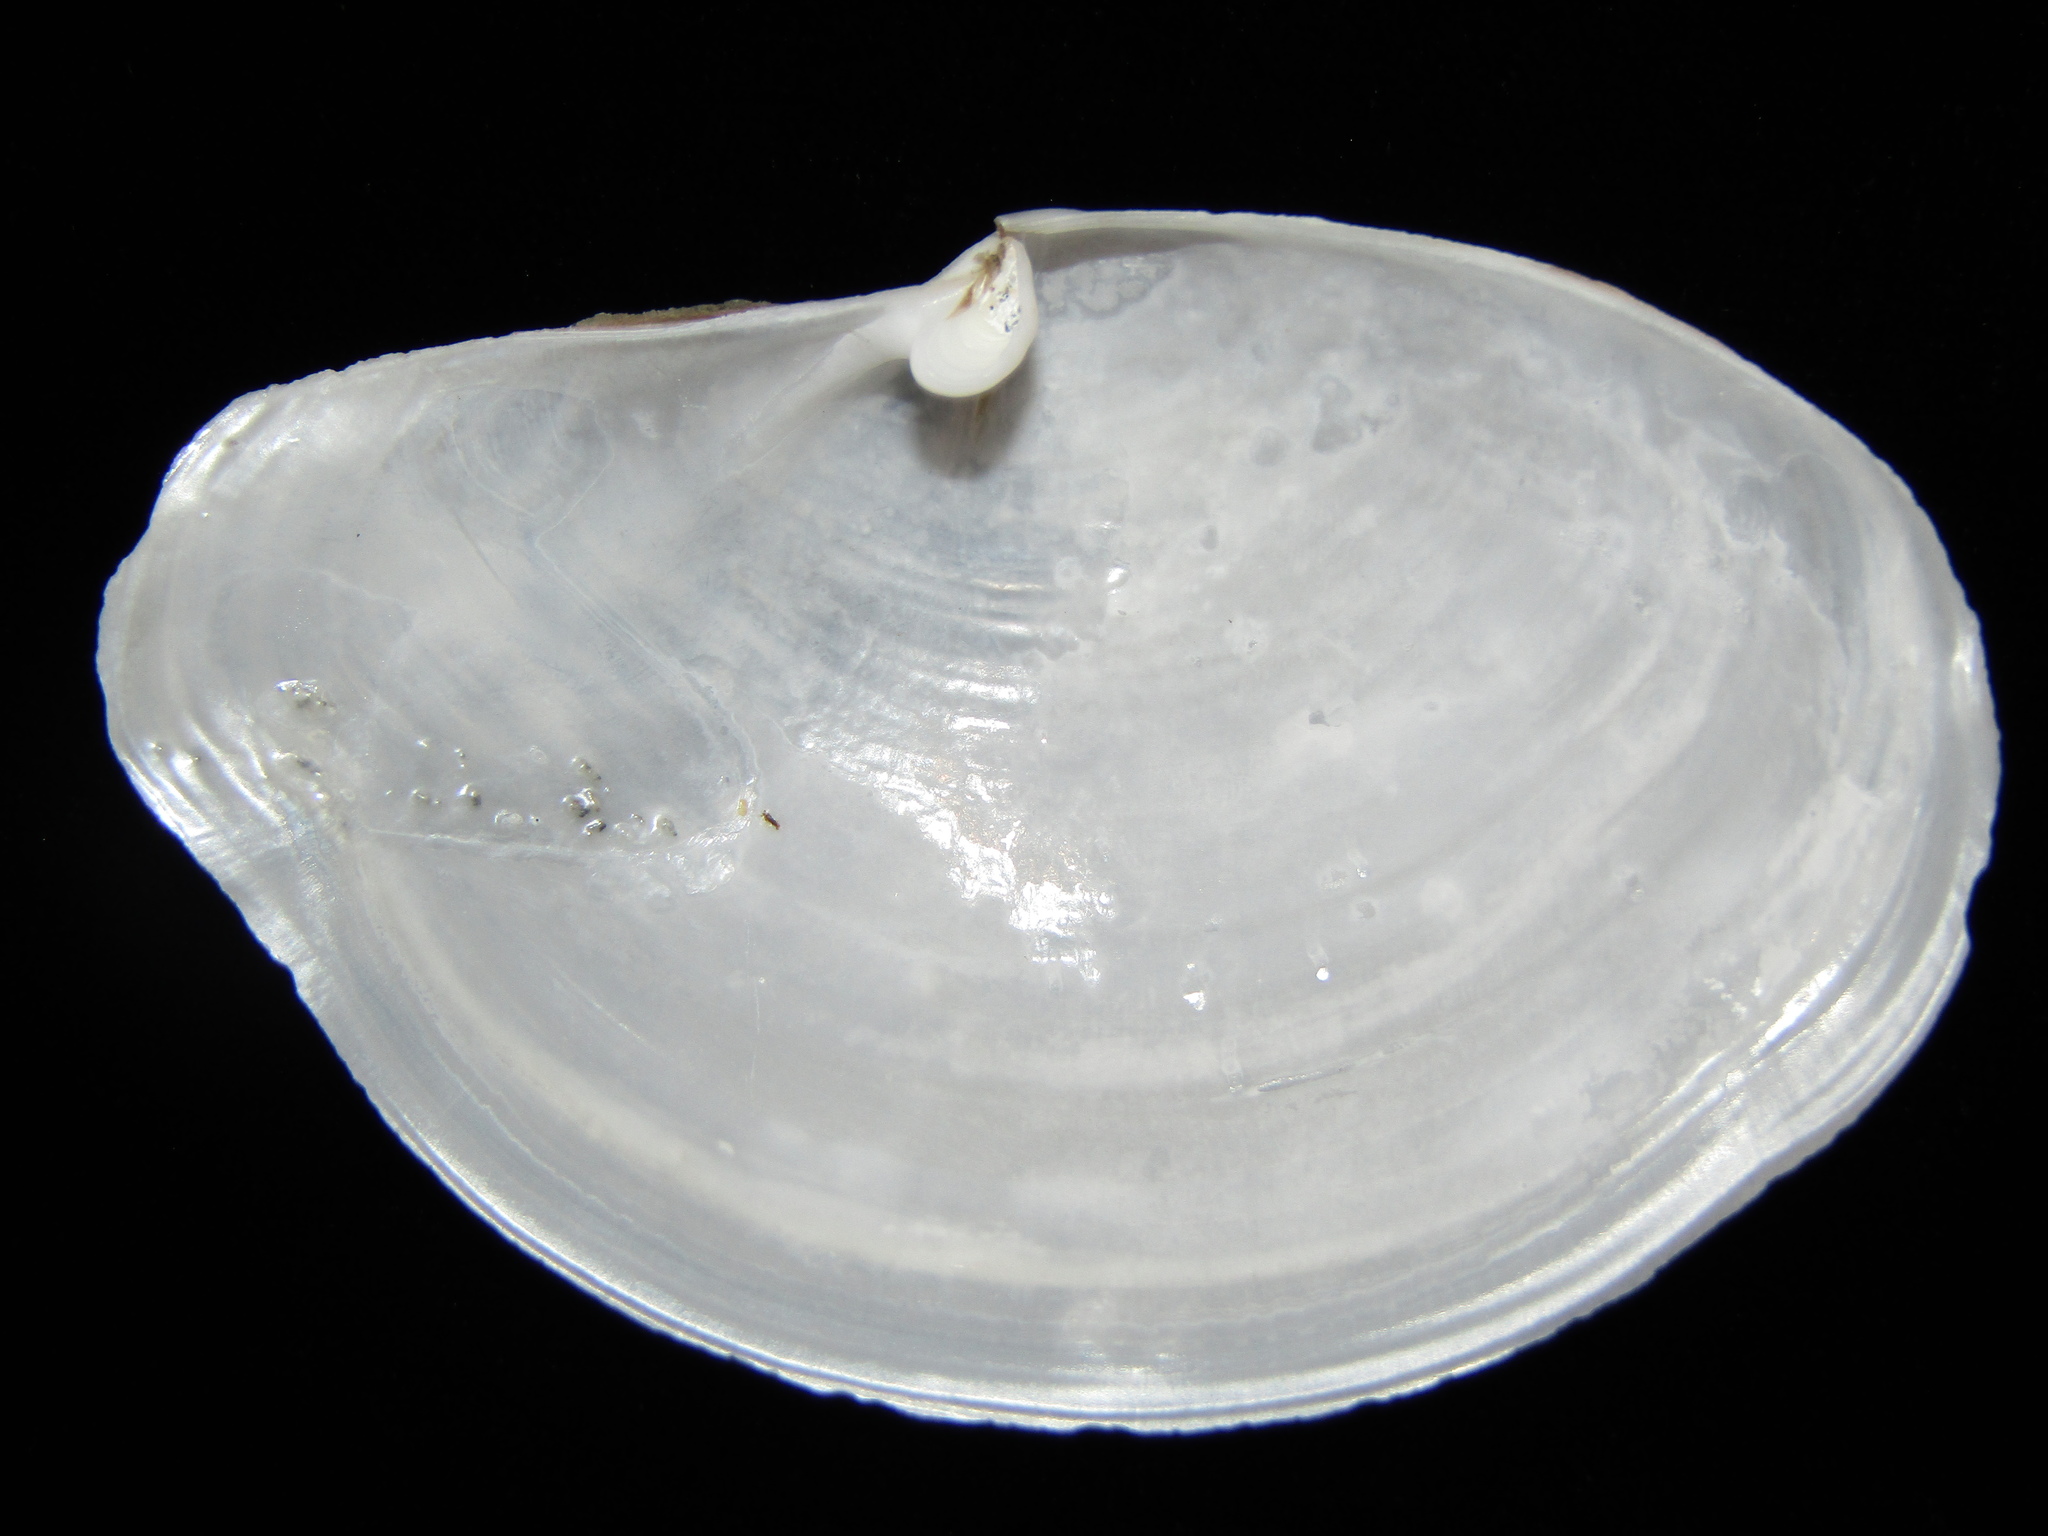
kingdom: Animalia
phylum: Mollusca
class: Bivalvia
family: Periplomatidae
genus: Offadesma
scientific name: Offadesma angasi
